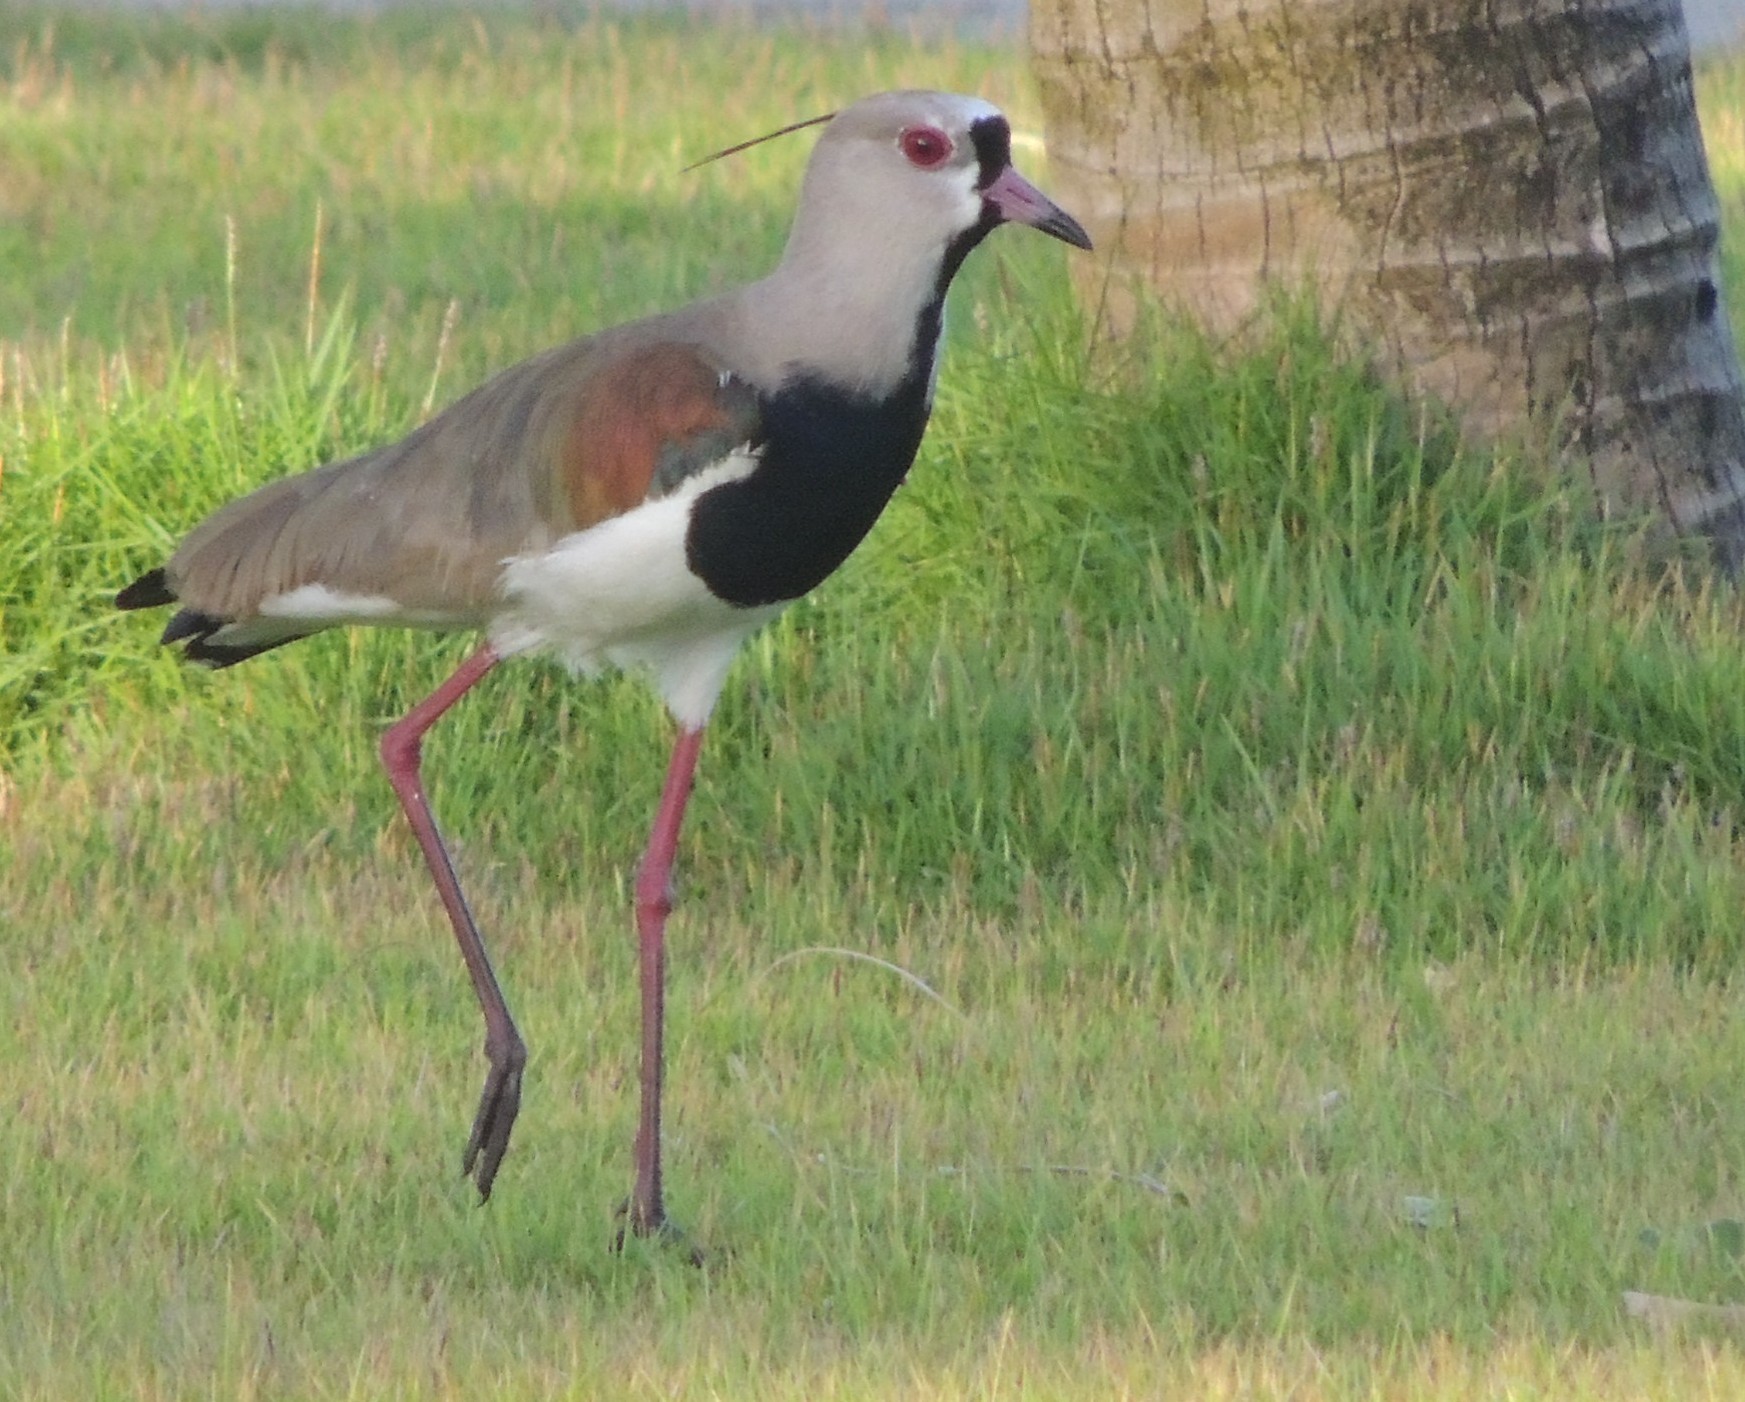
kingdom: Animalia
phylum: Chordata
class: Aves
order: Charadriiformes
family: Charadriidae
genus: Vanellus
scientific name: Vanellus chilensis
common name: Southern lapwing
